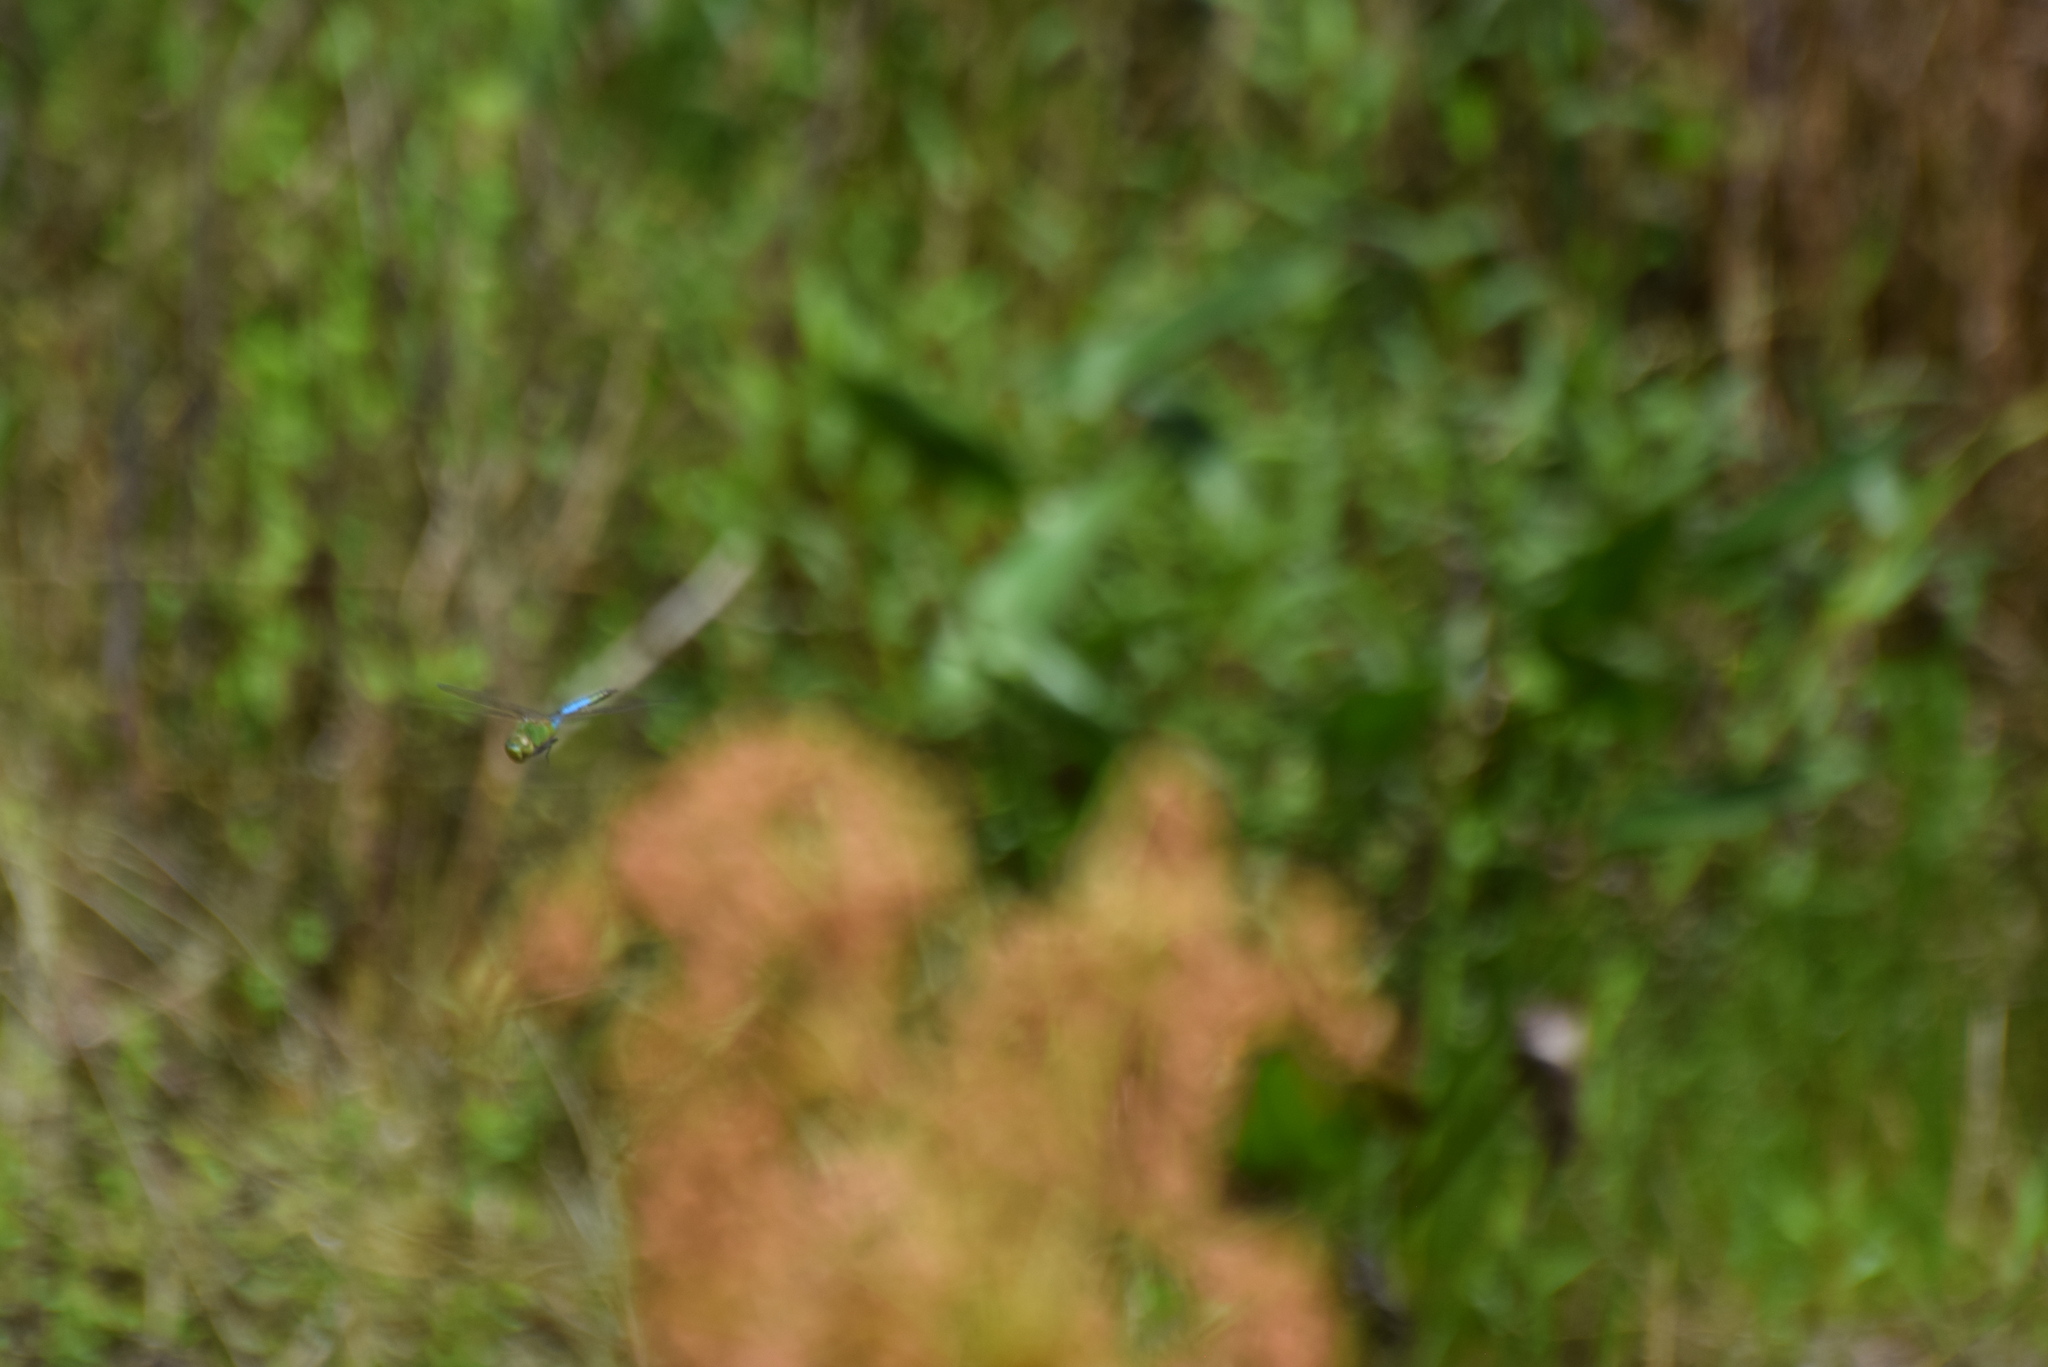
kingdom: Animalia
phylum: Arthropoda
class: Insecta
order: Odonata
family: Aeshnidae
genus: Anax
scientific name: Anax junius
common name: Common green darner
